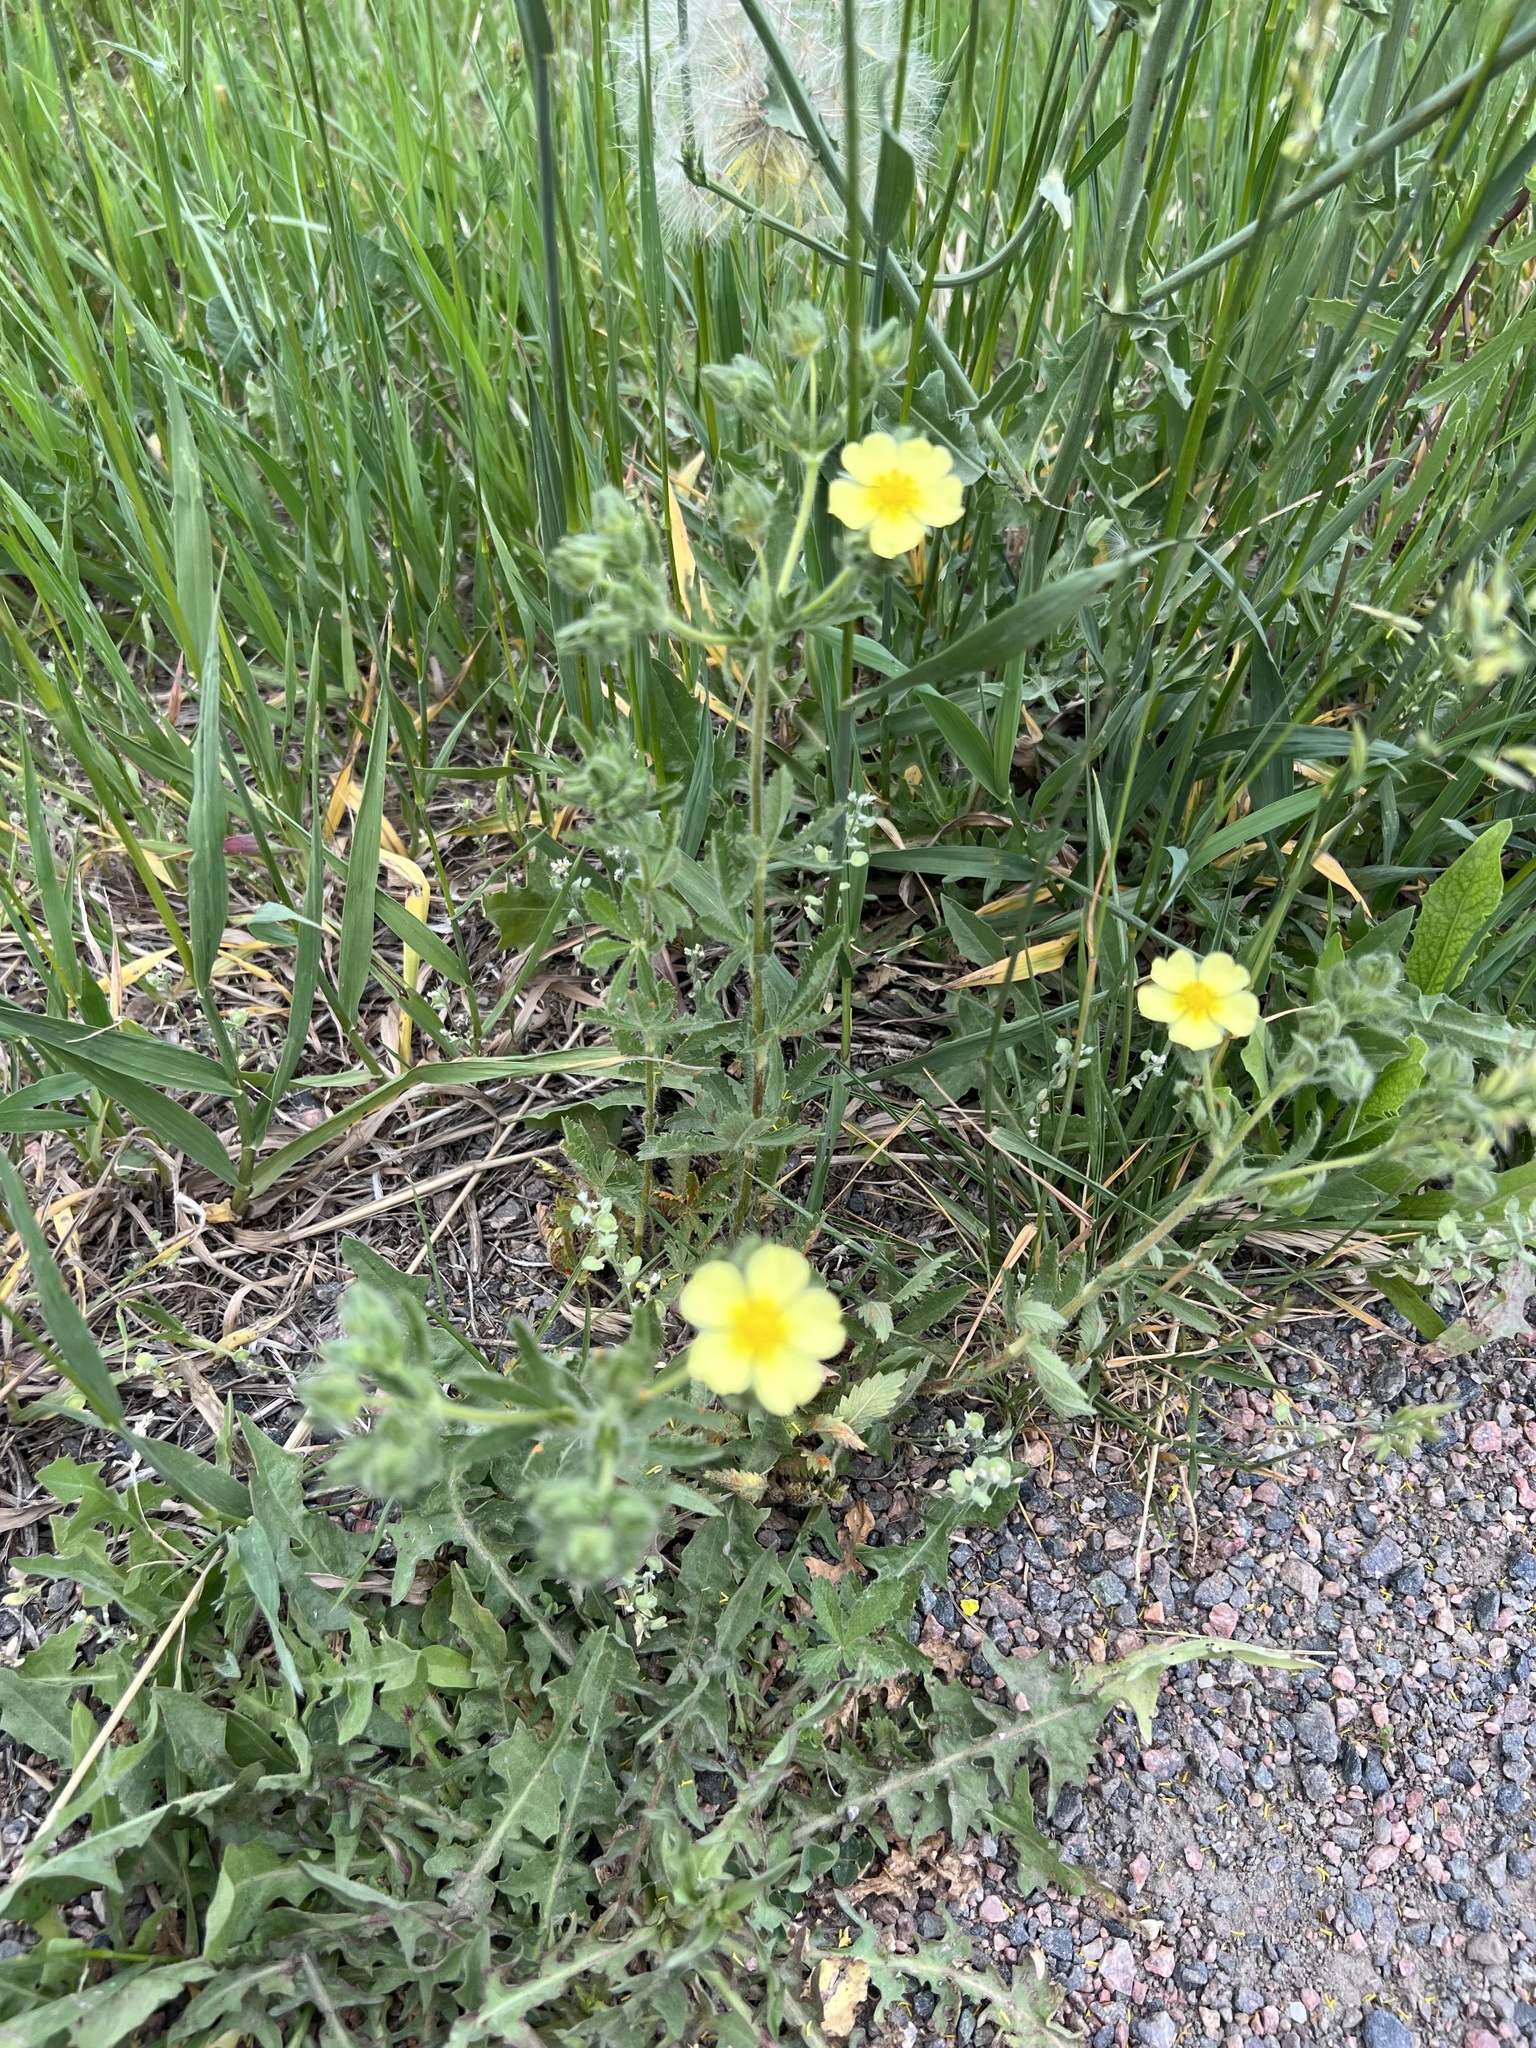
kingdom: Plantae
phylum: Tracheophyta
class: Magnoliopsida
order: Rosales
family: Rosaceae
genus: Potentilla
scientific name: Potentilla recta
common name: Sulphur cinquefoil
